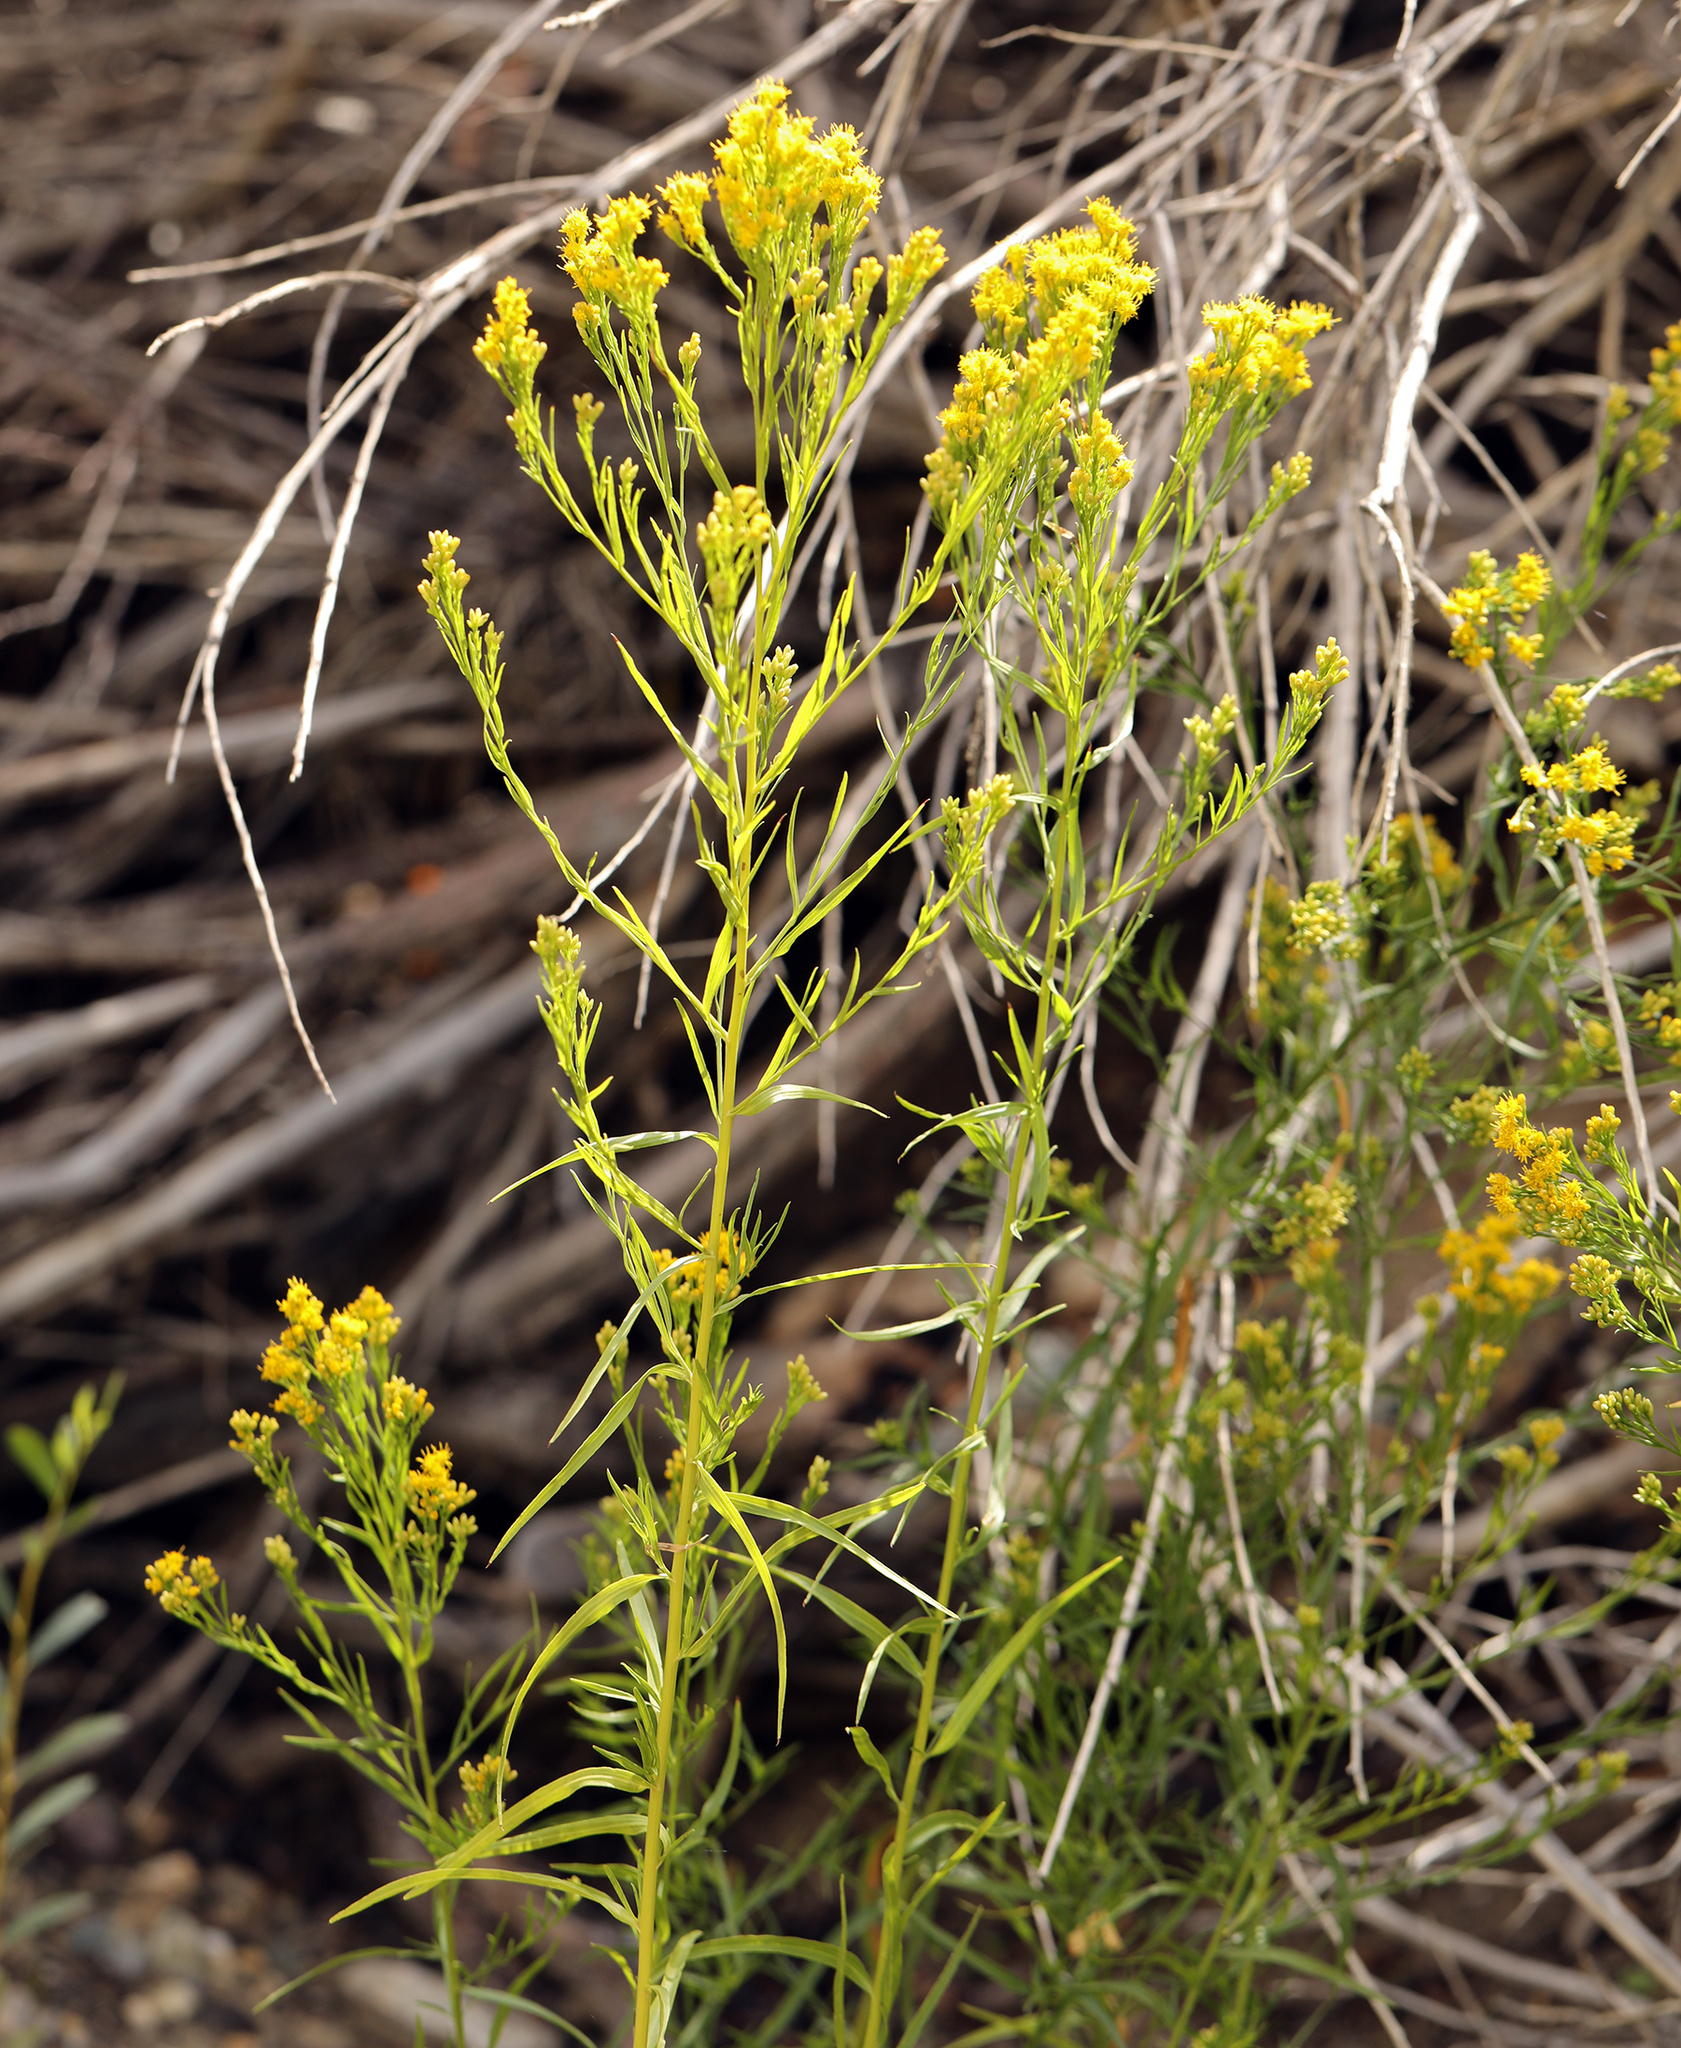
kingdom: Plantae
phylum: Tracheophyta
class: Magnoliopsida
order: Asterales
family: Asteraceae
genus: Euthamia
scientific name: Euthamia occidentalis
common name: Western goldentop
